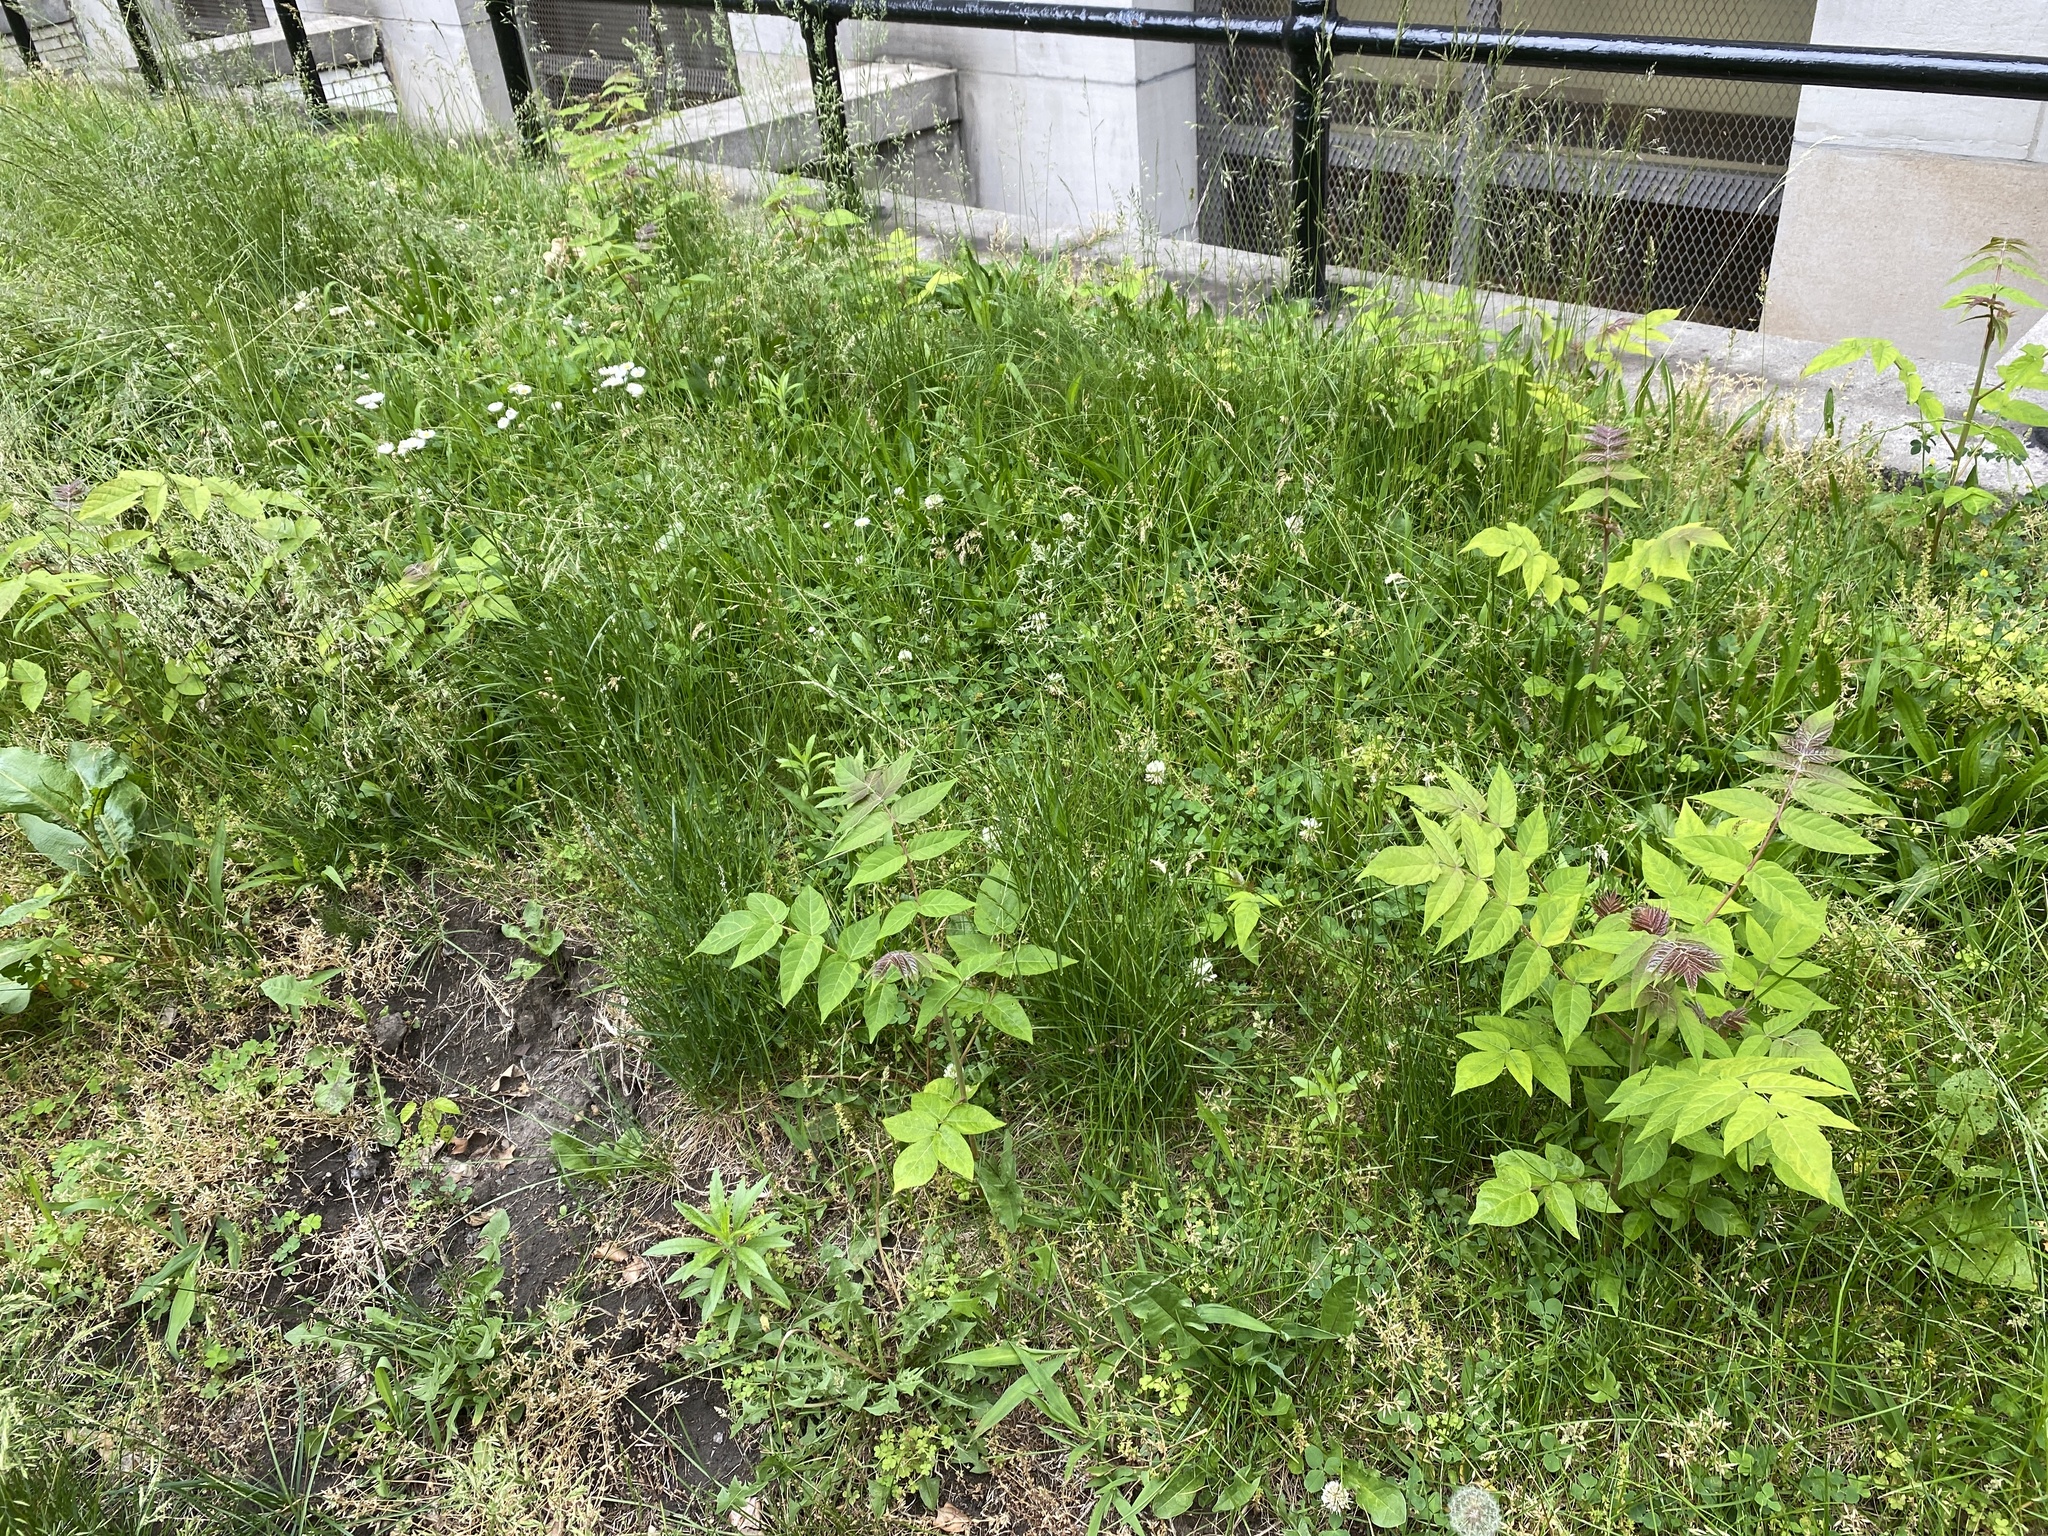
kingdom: Plantae
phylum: Tracheophyta
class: Magnoliopsida
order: Sapindales
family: Simaroubaceae
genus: Ailanthus
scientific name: Ailanthus altissima
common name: Tree-of-heaven
